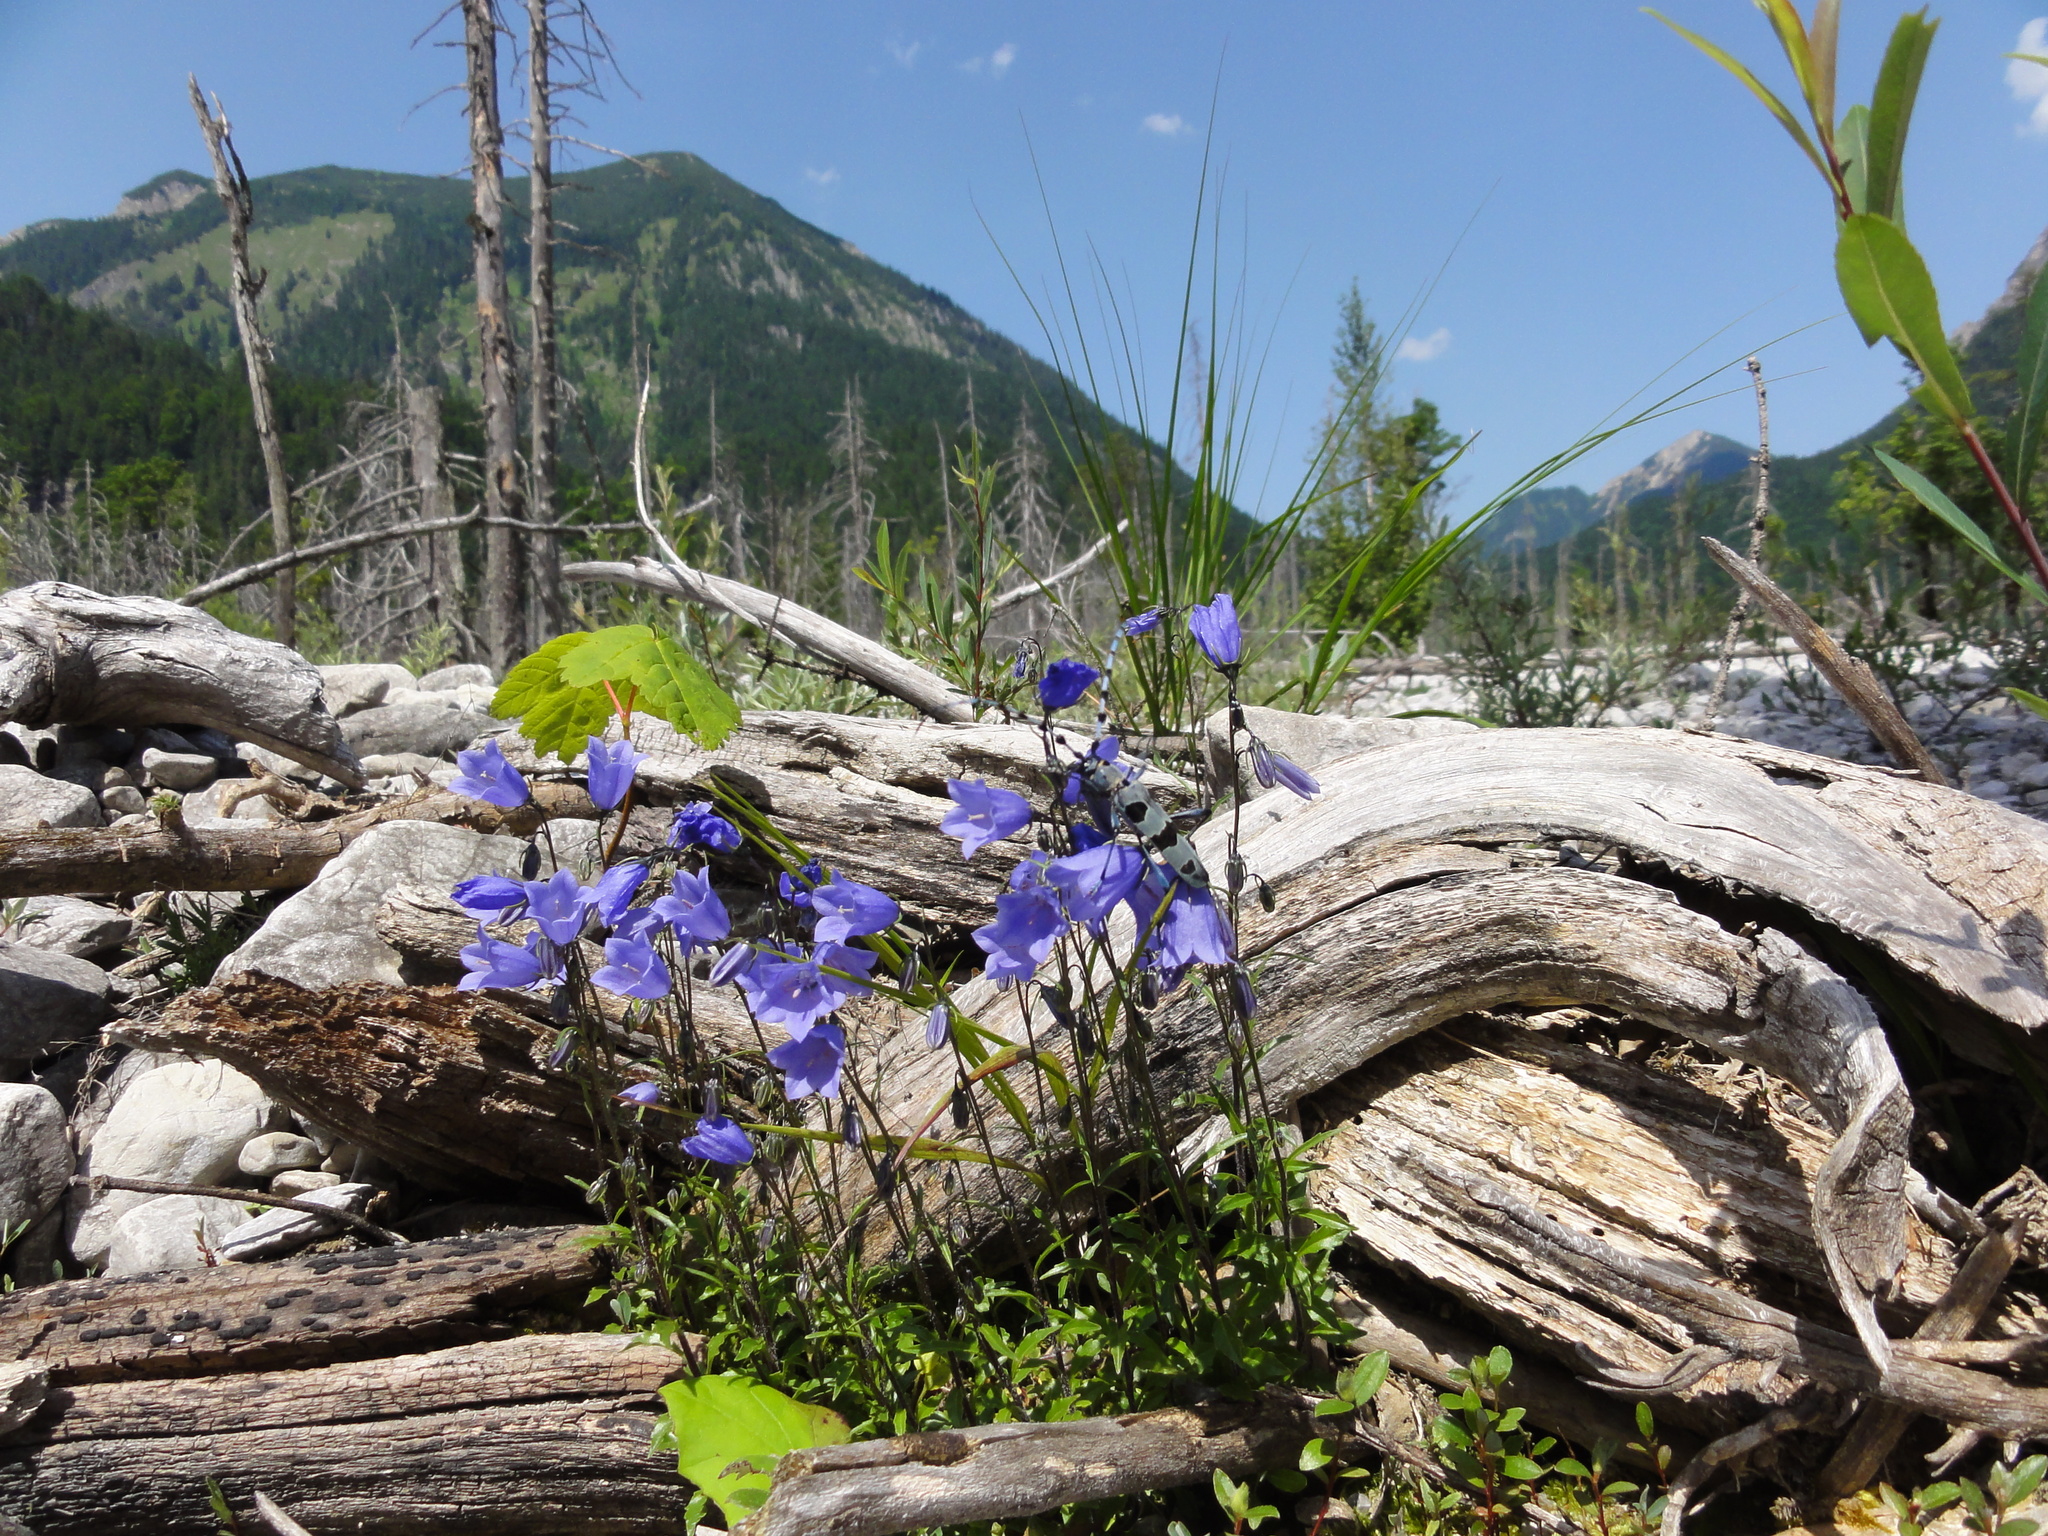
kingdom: Plantae
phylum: Tracheophyta
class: Magnoliopsida
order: Asterales
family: Campanulaceae
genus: Campanula
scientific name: Campanula cochleariifolia
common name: Fairies'-thimbles
